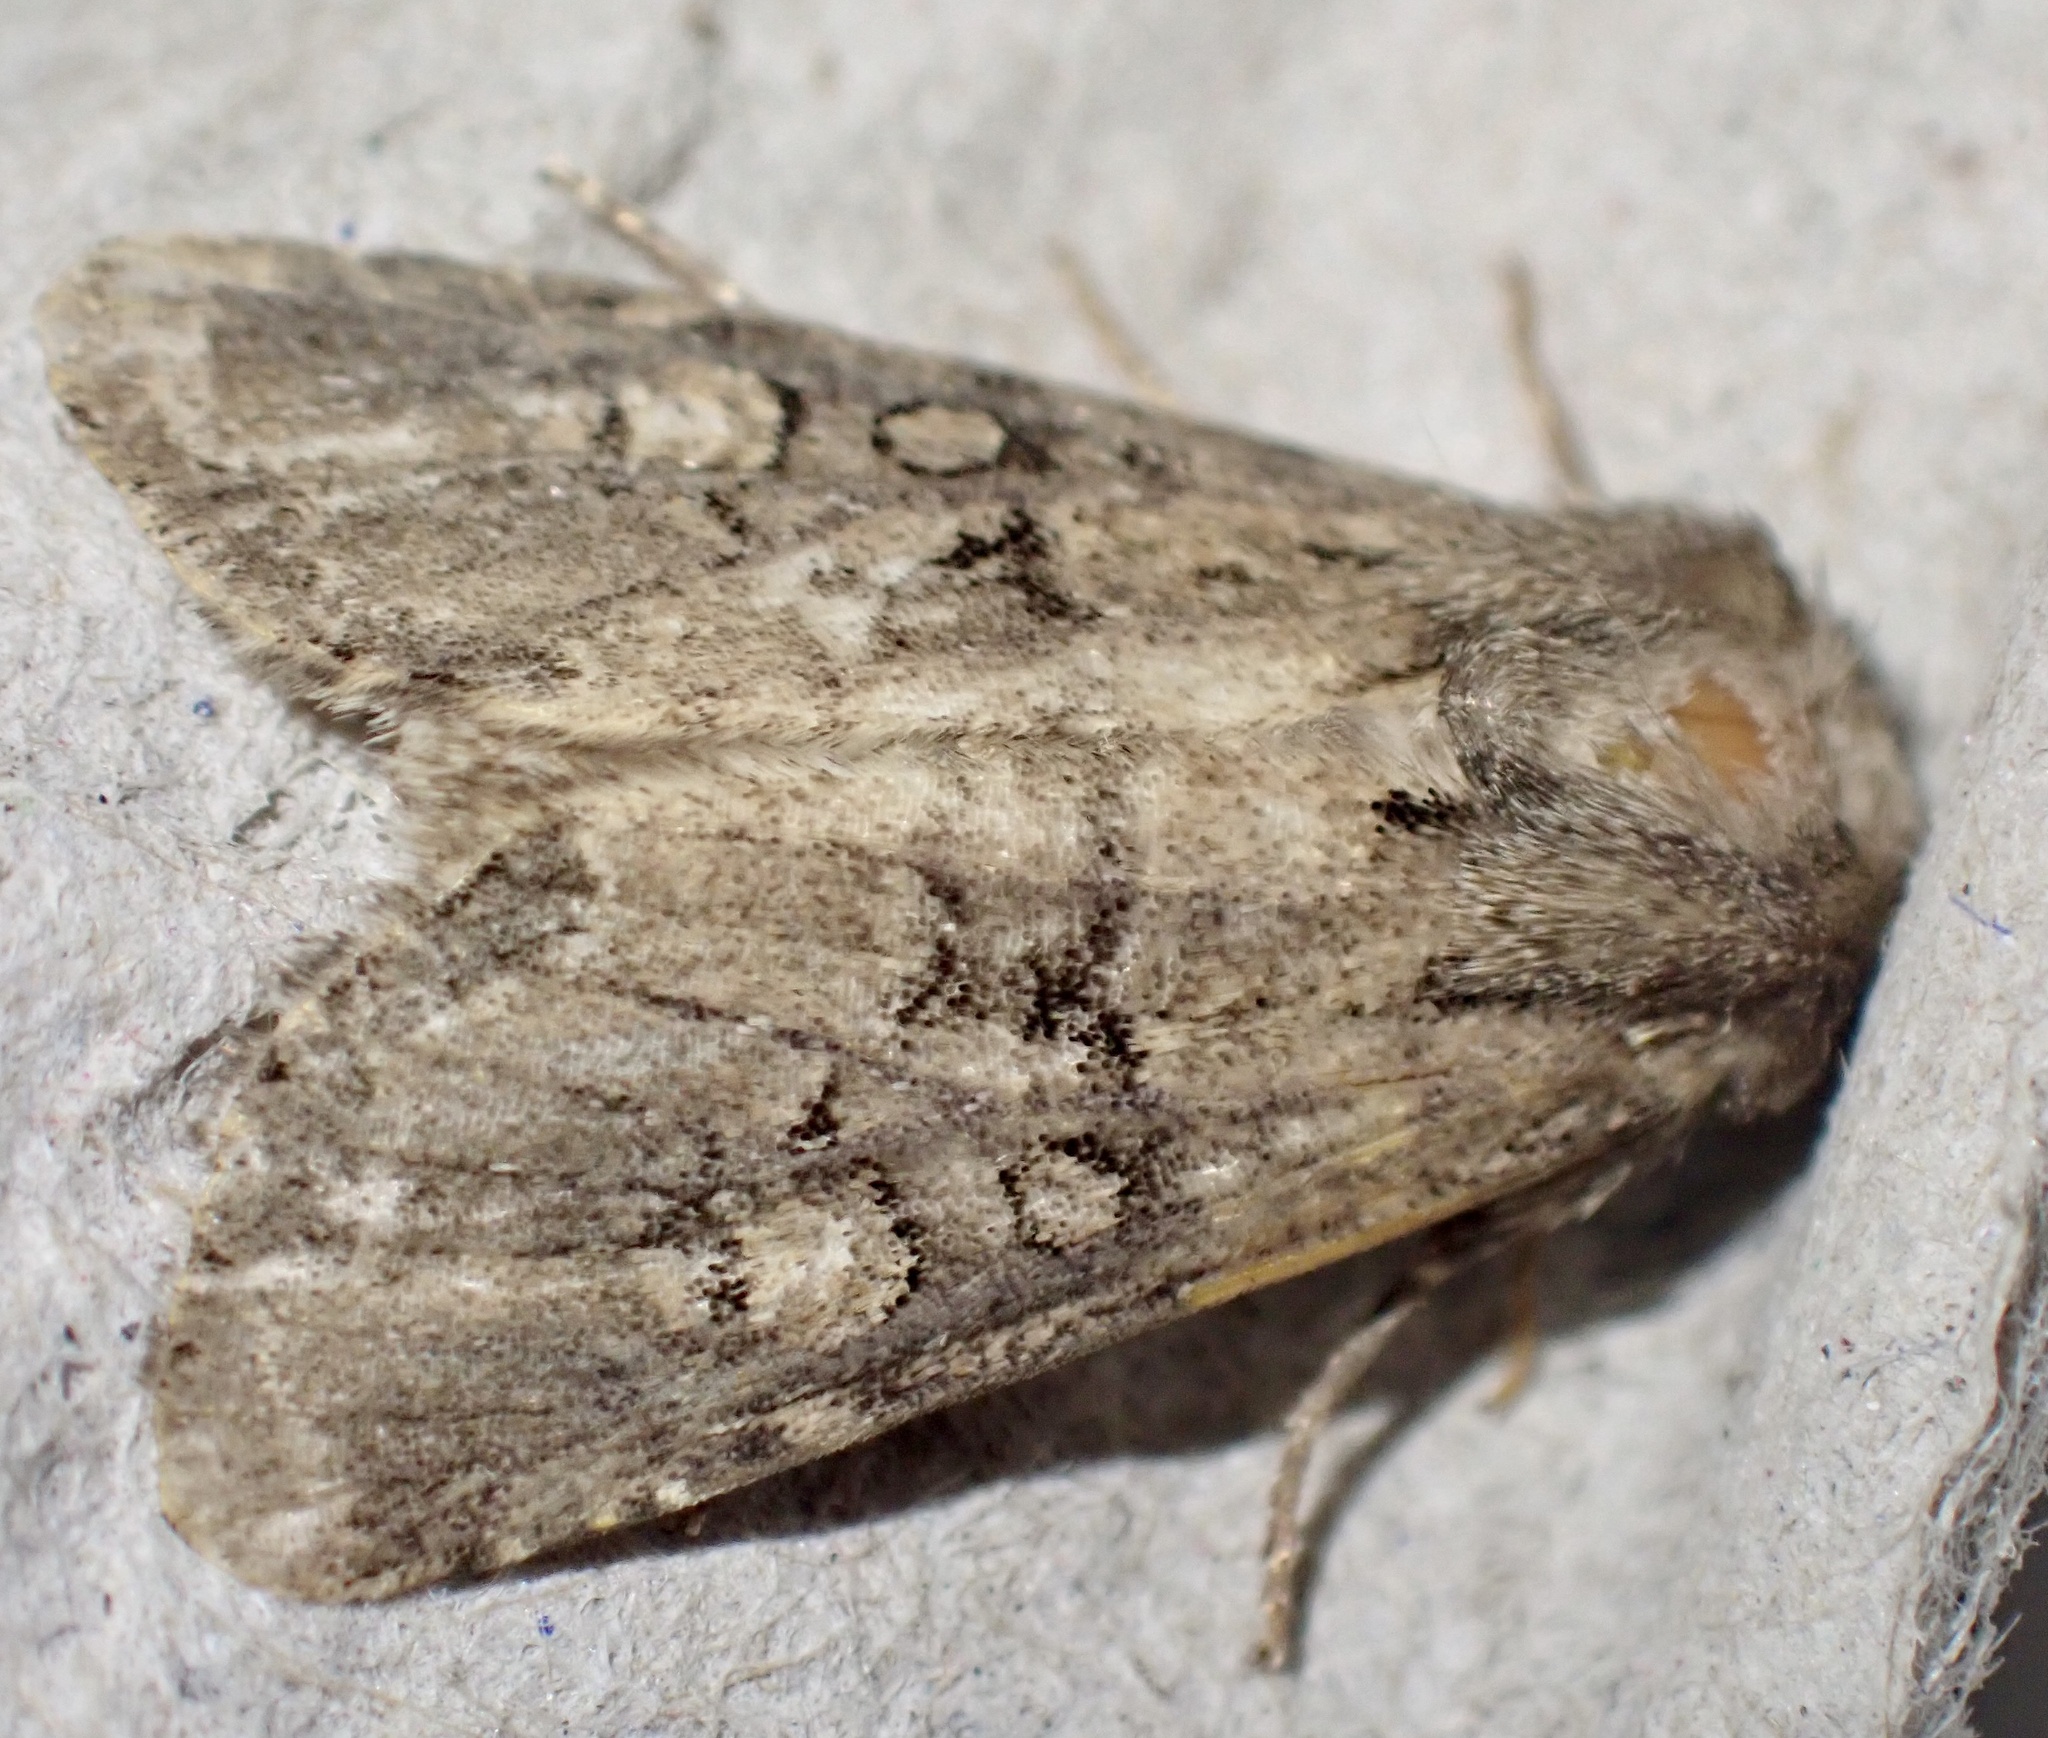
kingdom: Animalia
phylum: Arthropoda
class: Insecta
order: Lepidoptera
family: Noctuidae
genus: Luperina
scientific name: Luperina testacea
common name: Flounced rustic
